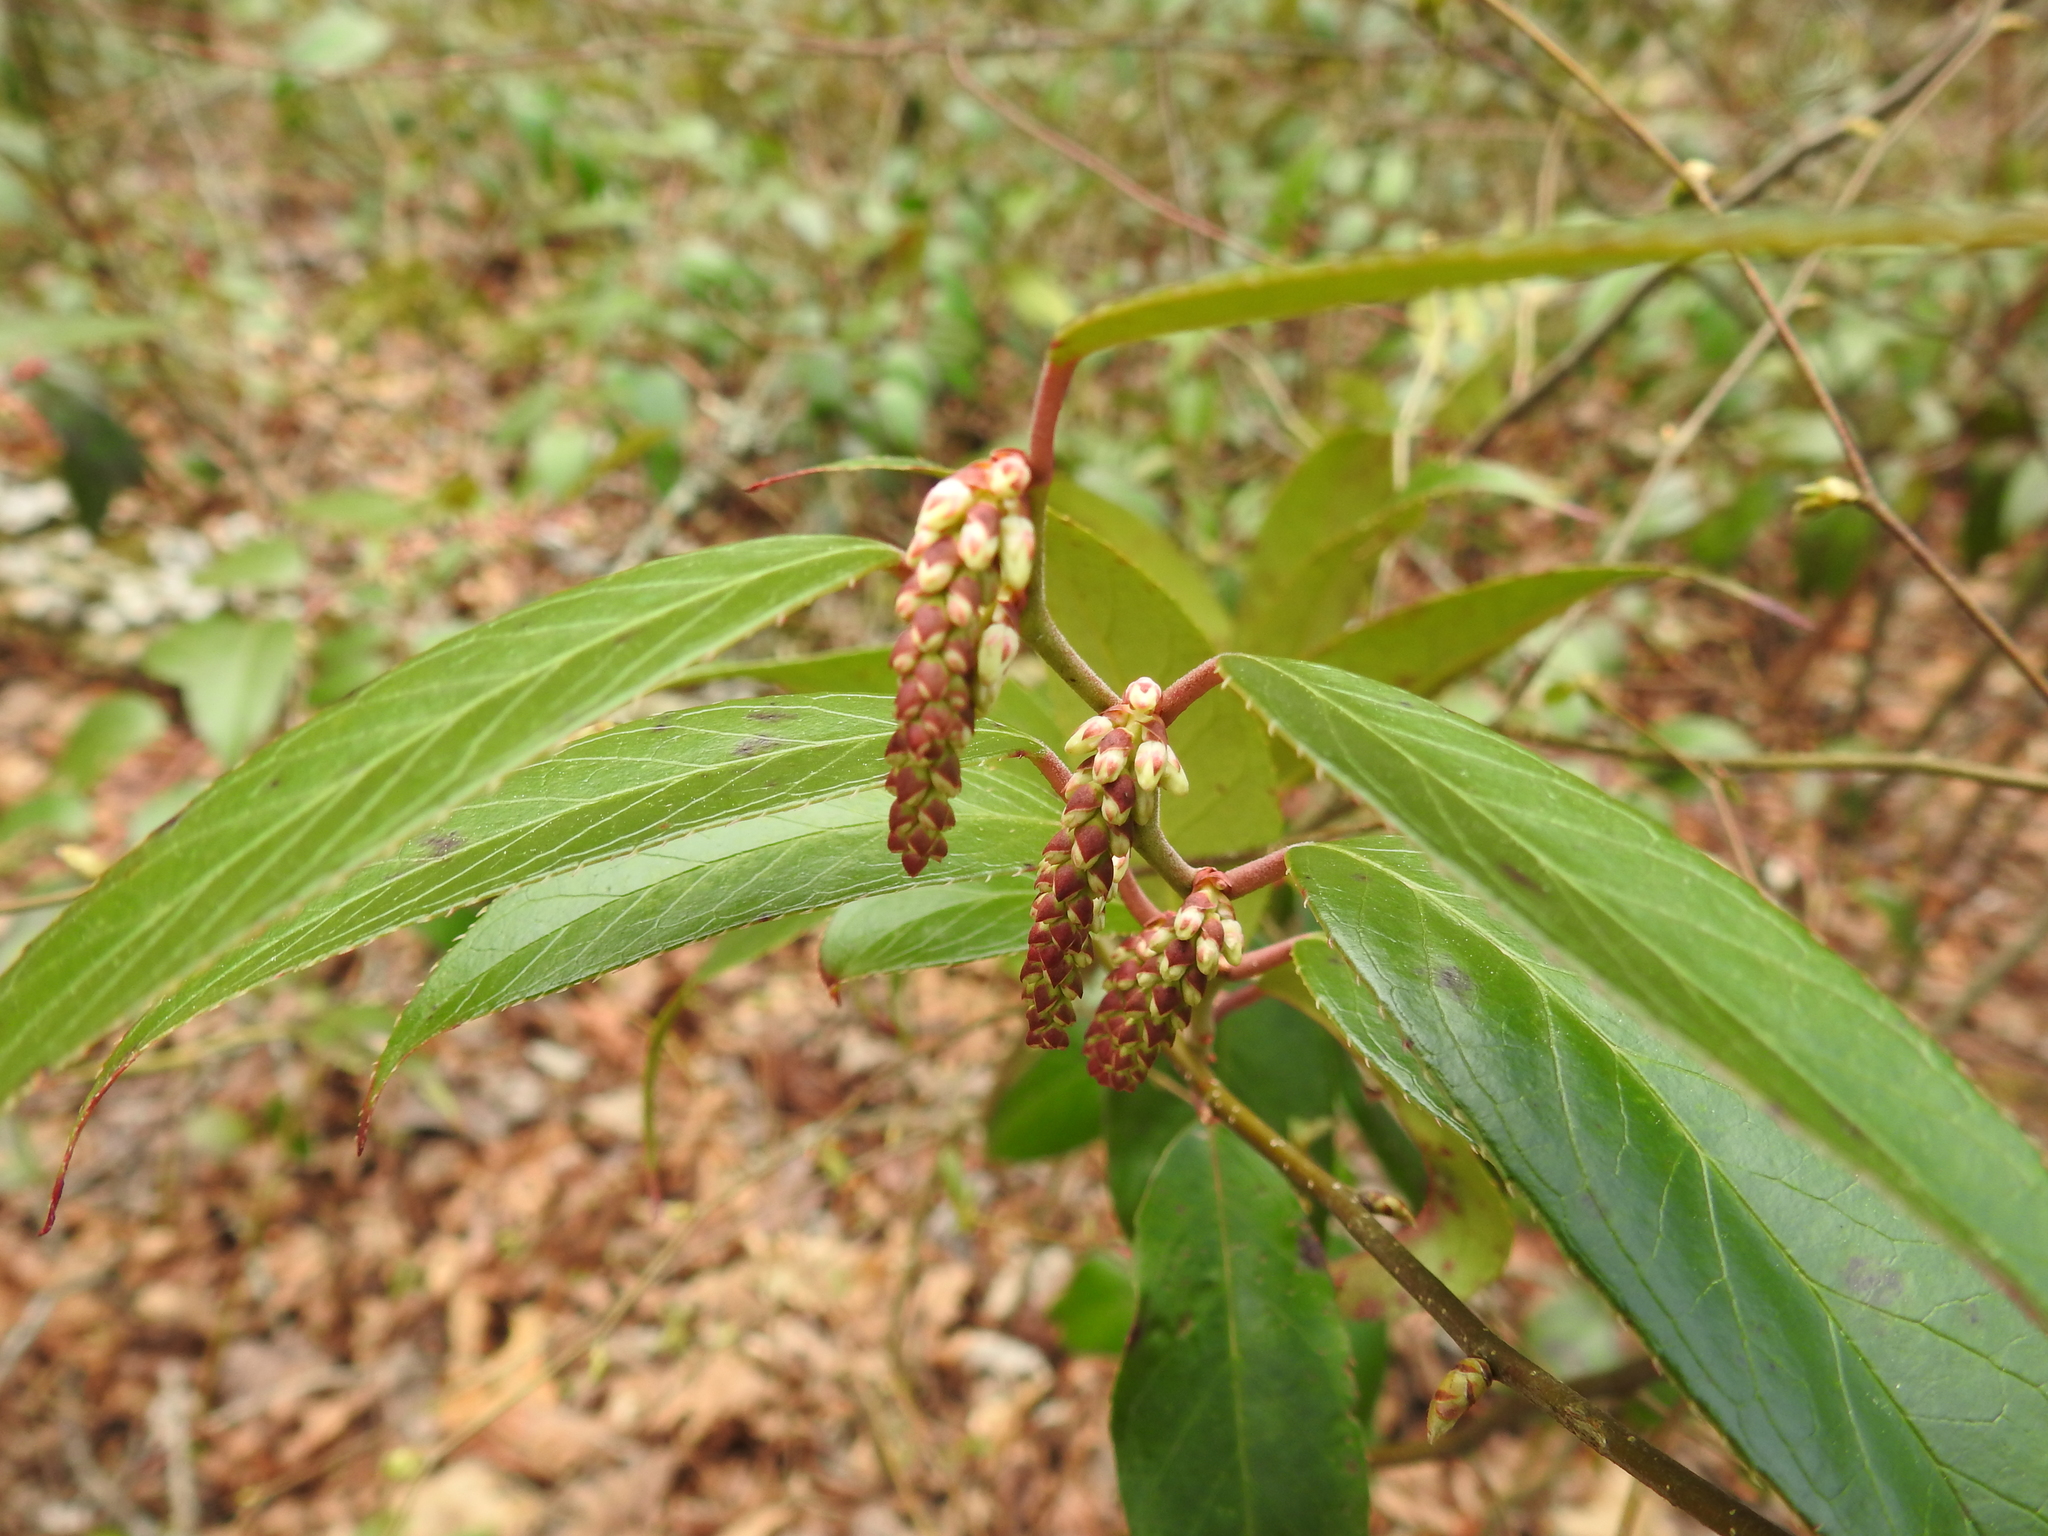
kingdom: Plantae
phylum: Tracheophyta
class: Magnoliopsida
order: Ericales
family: Ericaceae
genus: Leucothoe
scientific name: Leucothoe fontanesiana
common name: Fetterbush
